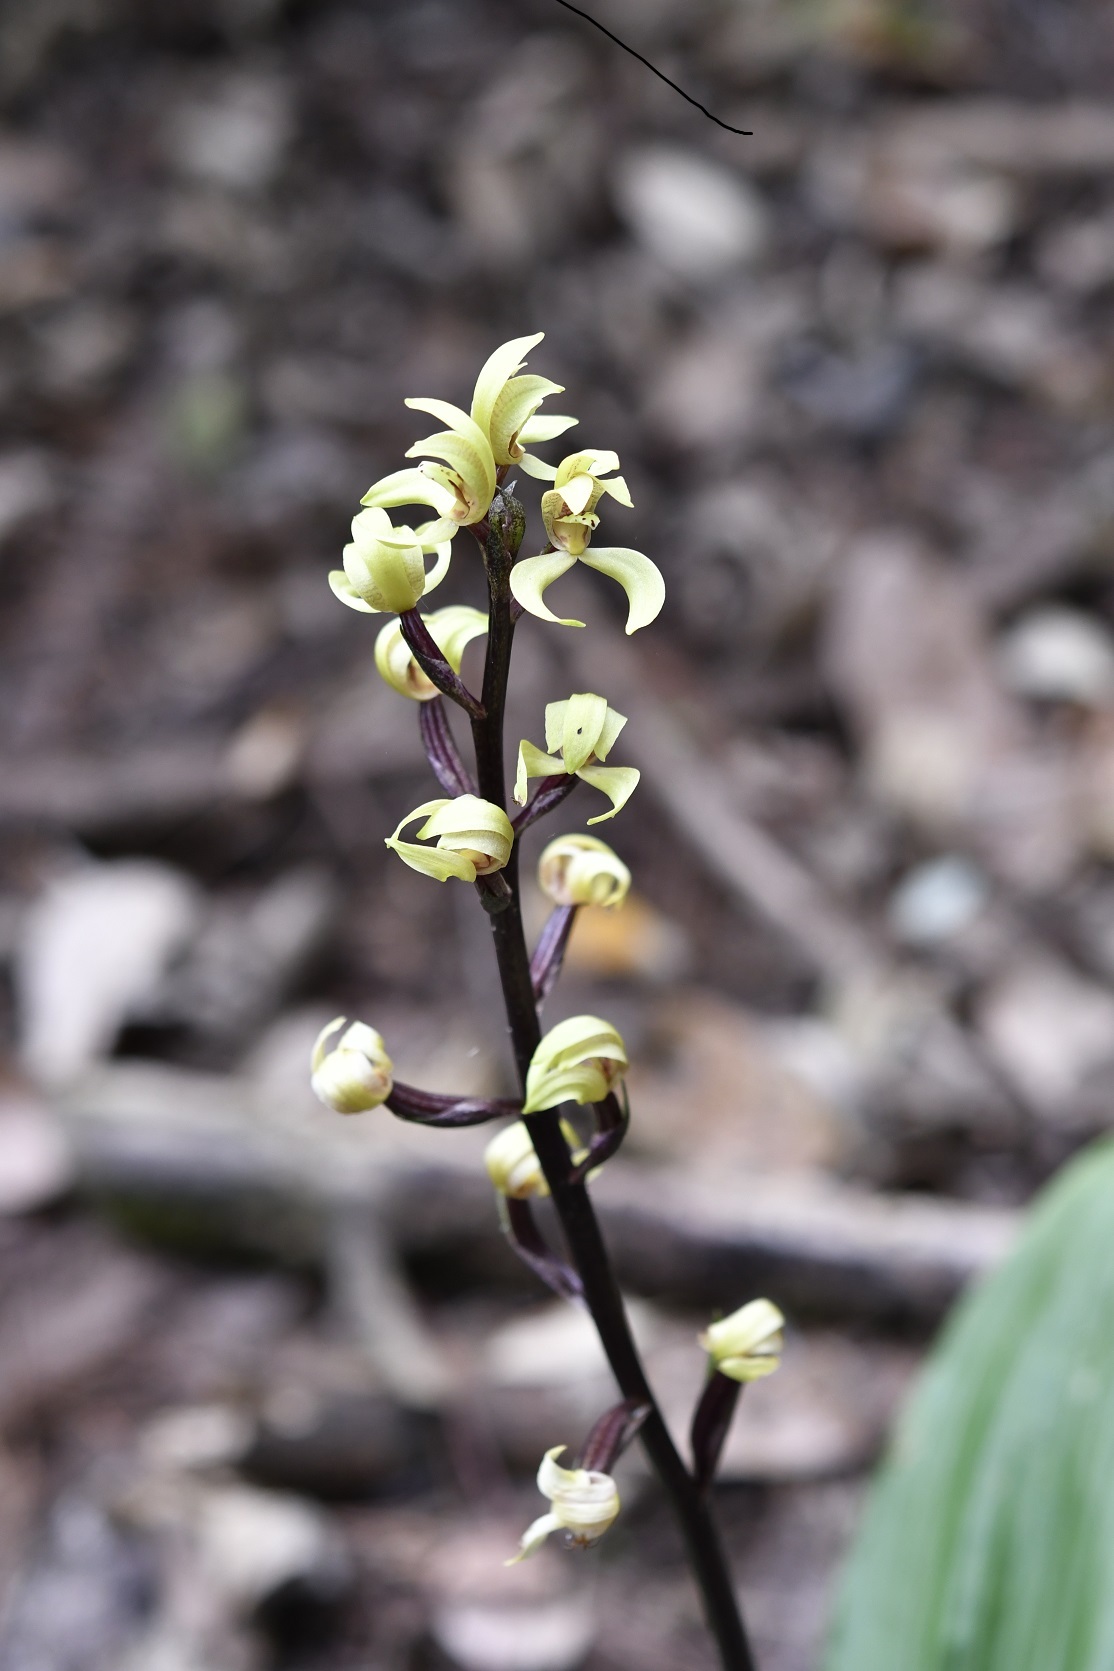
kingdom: Plantae
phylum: Tracheophyta
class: Liliopsida
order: Asparagales
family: Orchidaceae
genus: Govenia
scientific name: Govenia superba
